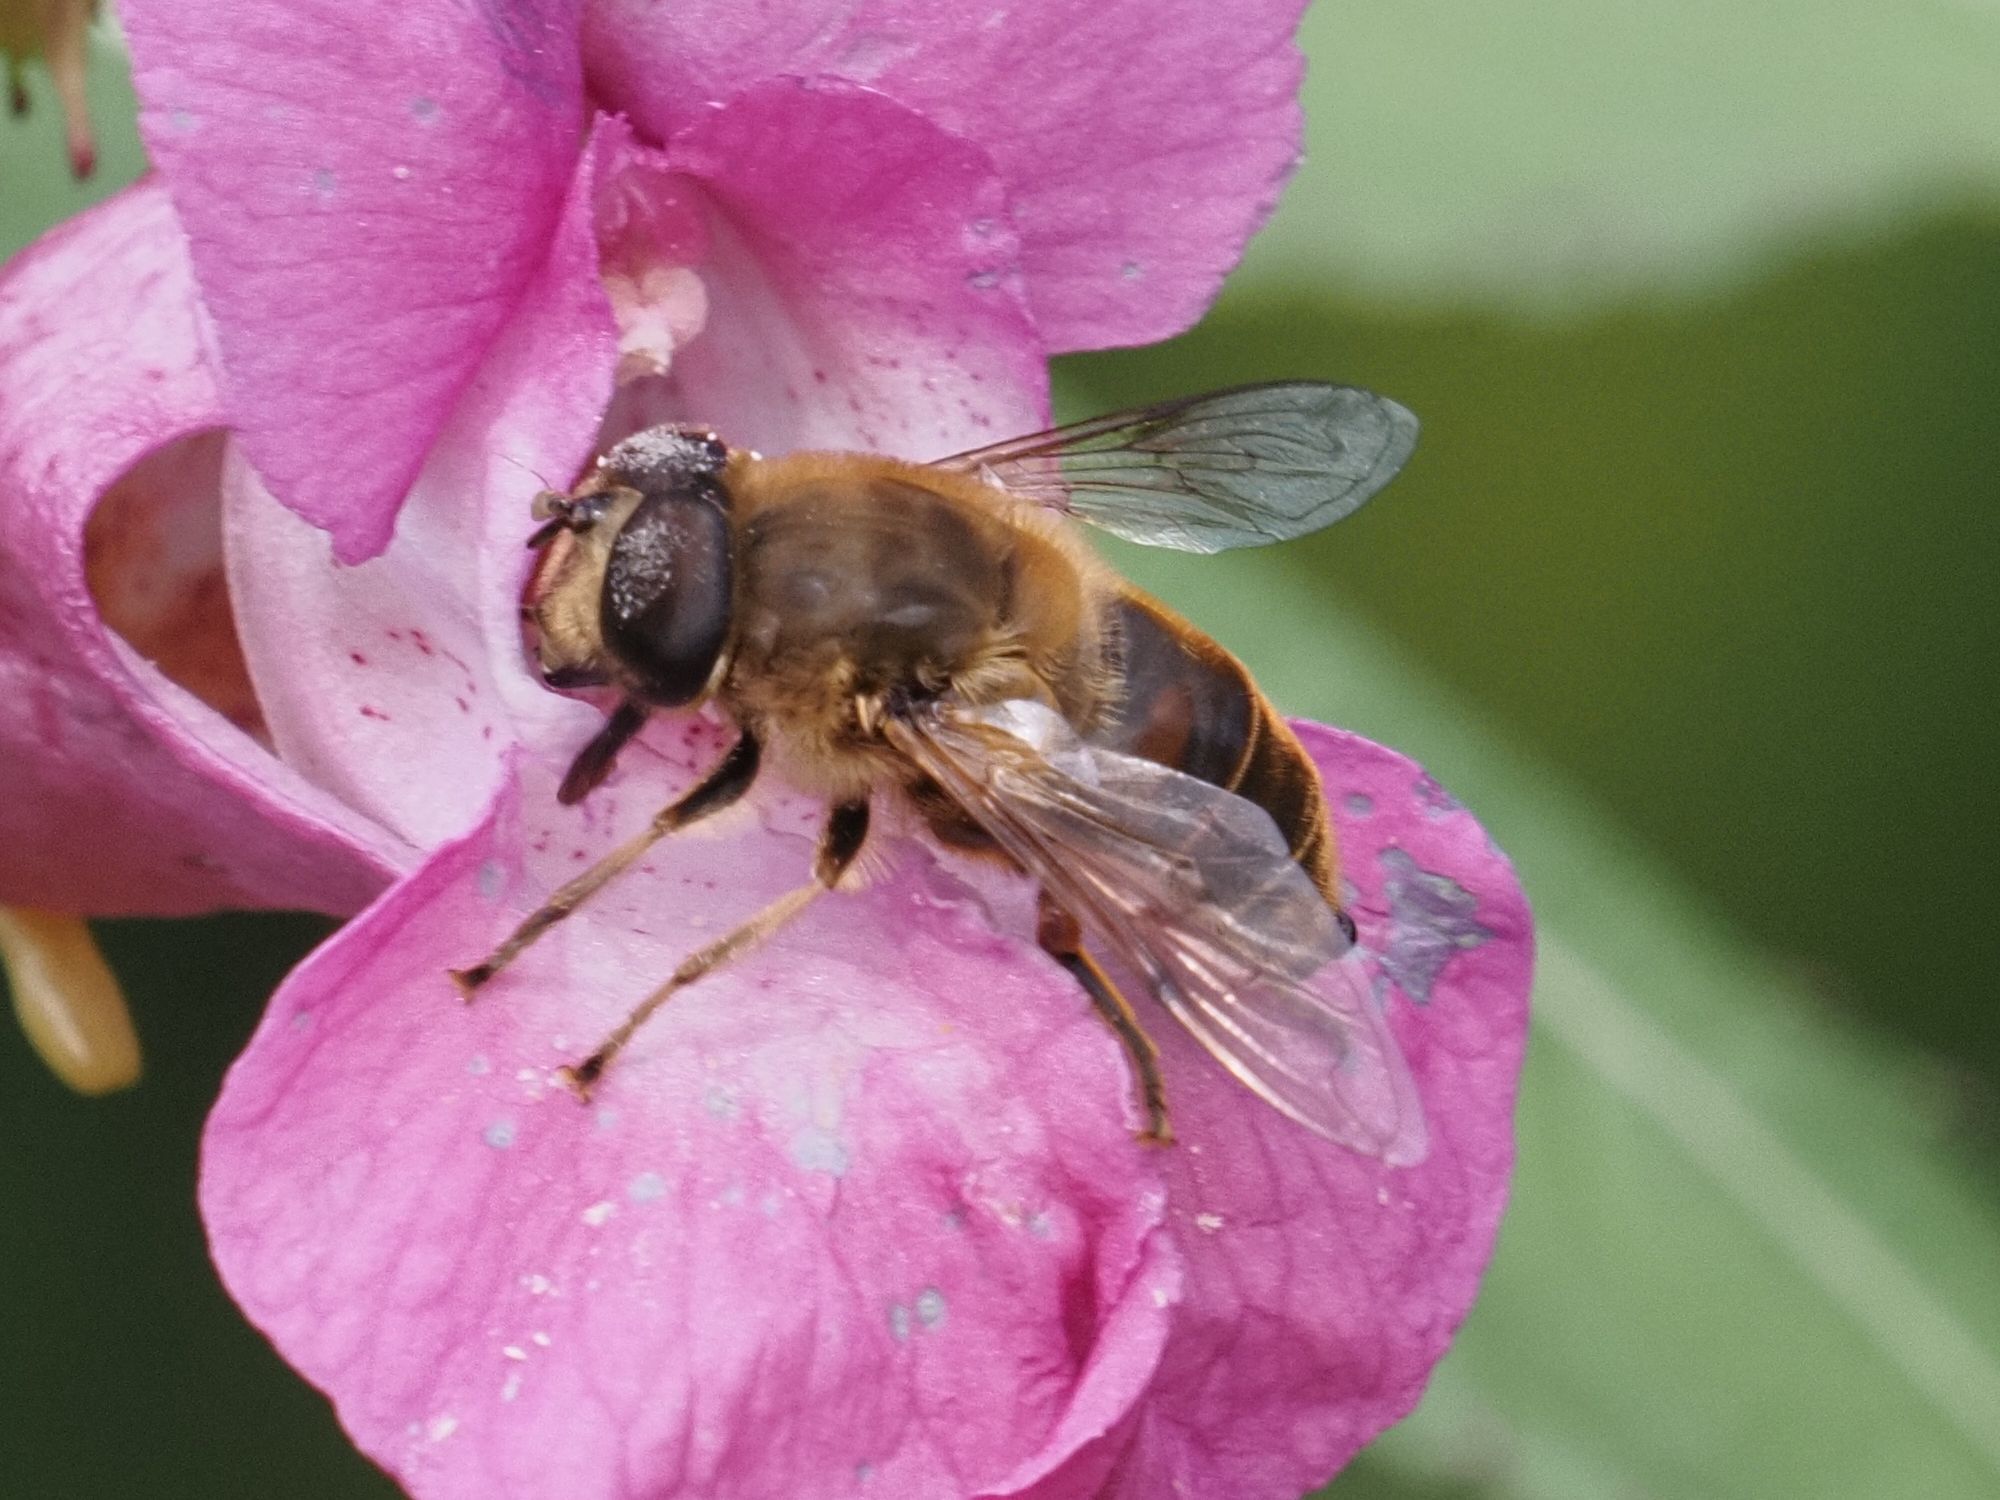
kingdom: Animalia
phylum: Arthropoda
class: Insecta
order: Diptera
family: Syrphidae
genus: Eristalis
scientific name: Eristalis tenax
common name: Drone fly
